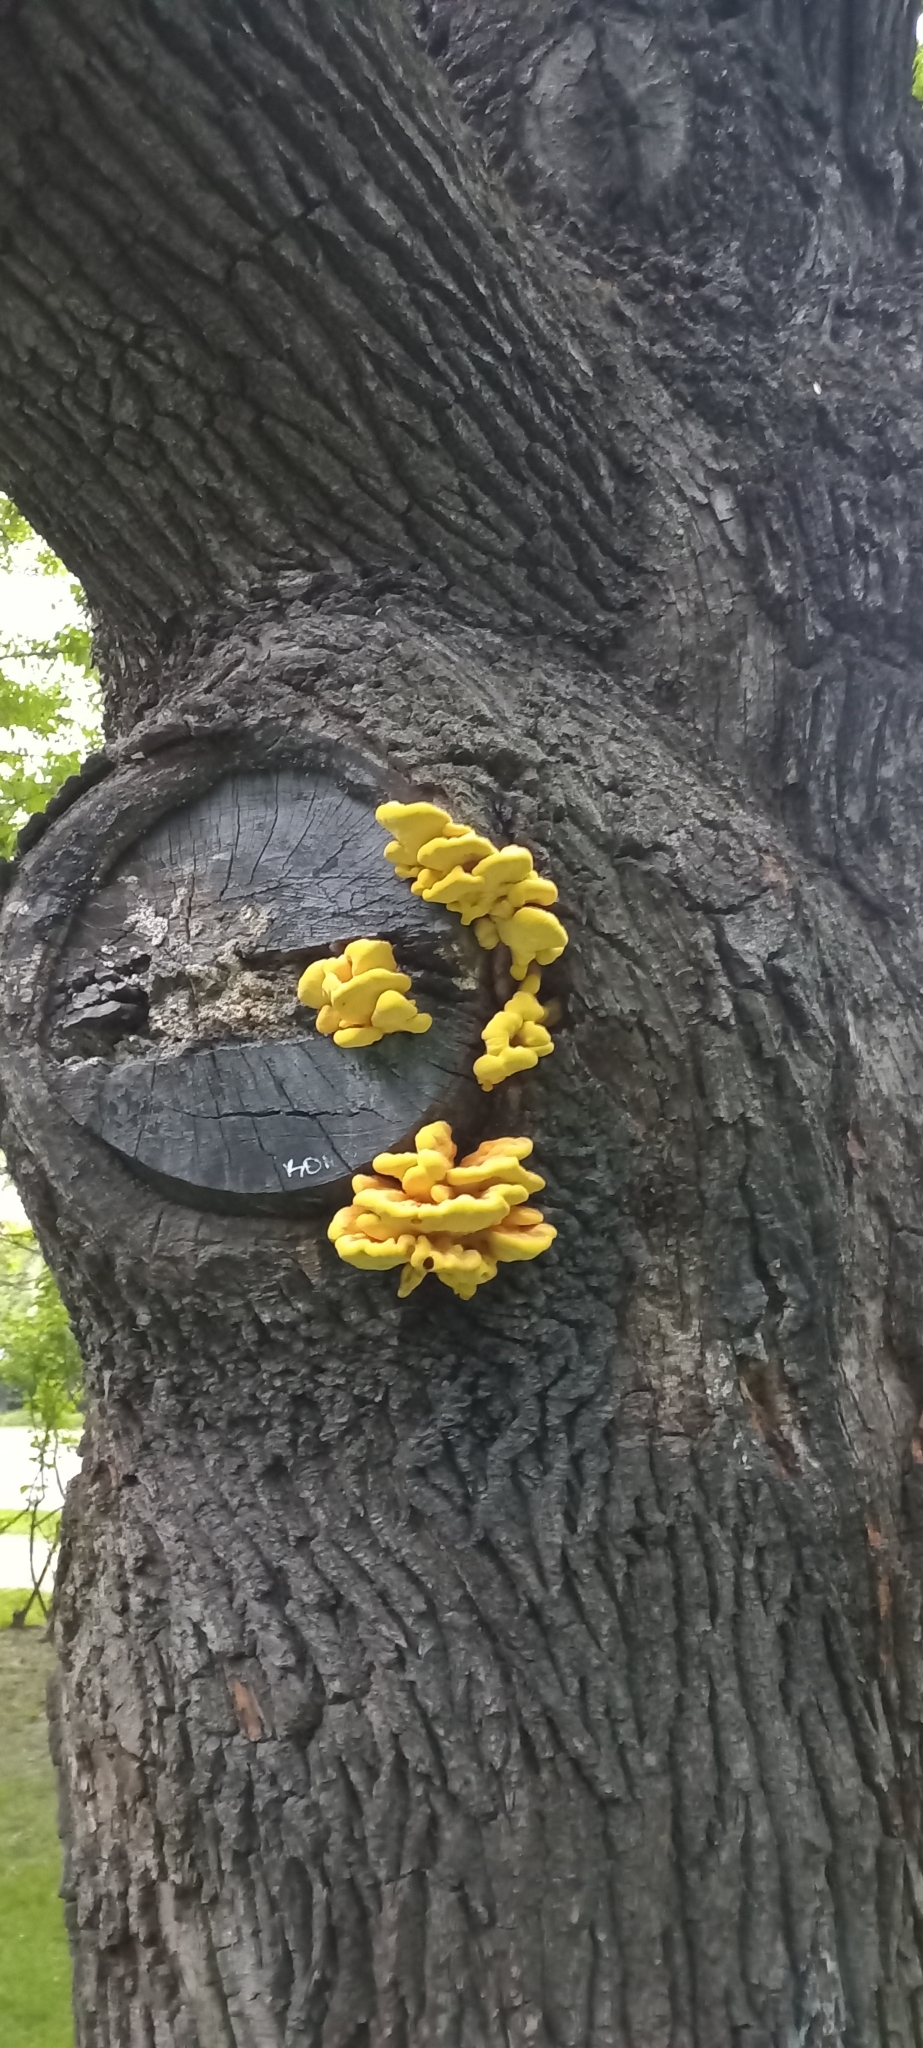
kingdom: Fungi
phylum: Basidiomycota
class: Agaricomycetes
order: Polyporales
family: Laetiporaceae
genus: Laetiporus
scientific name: Laetiporus sulphureus
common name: Chicken of the woods
